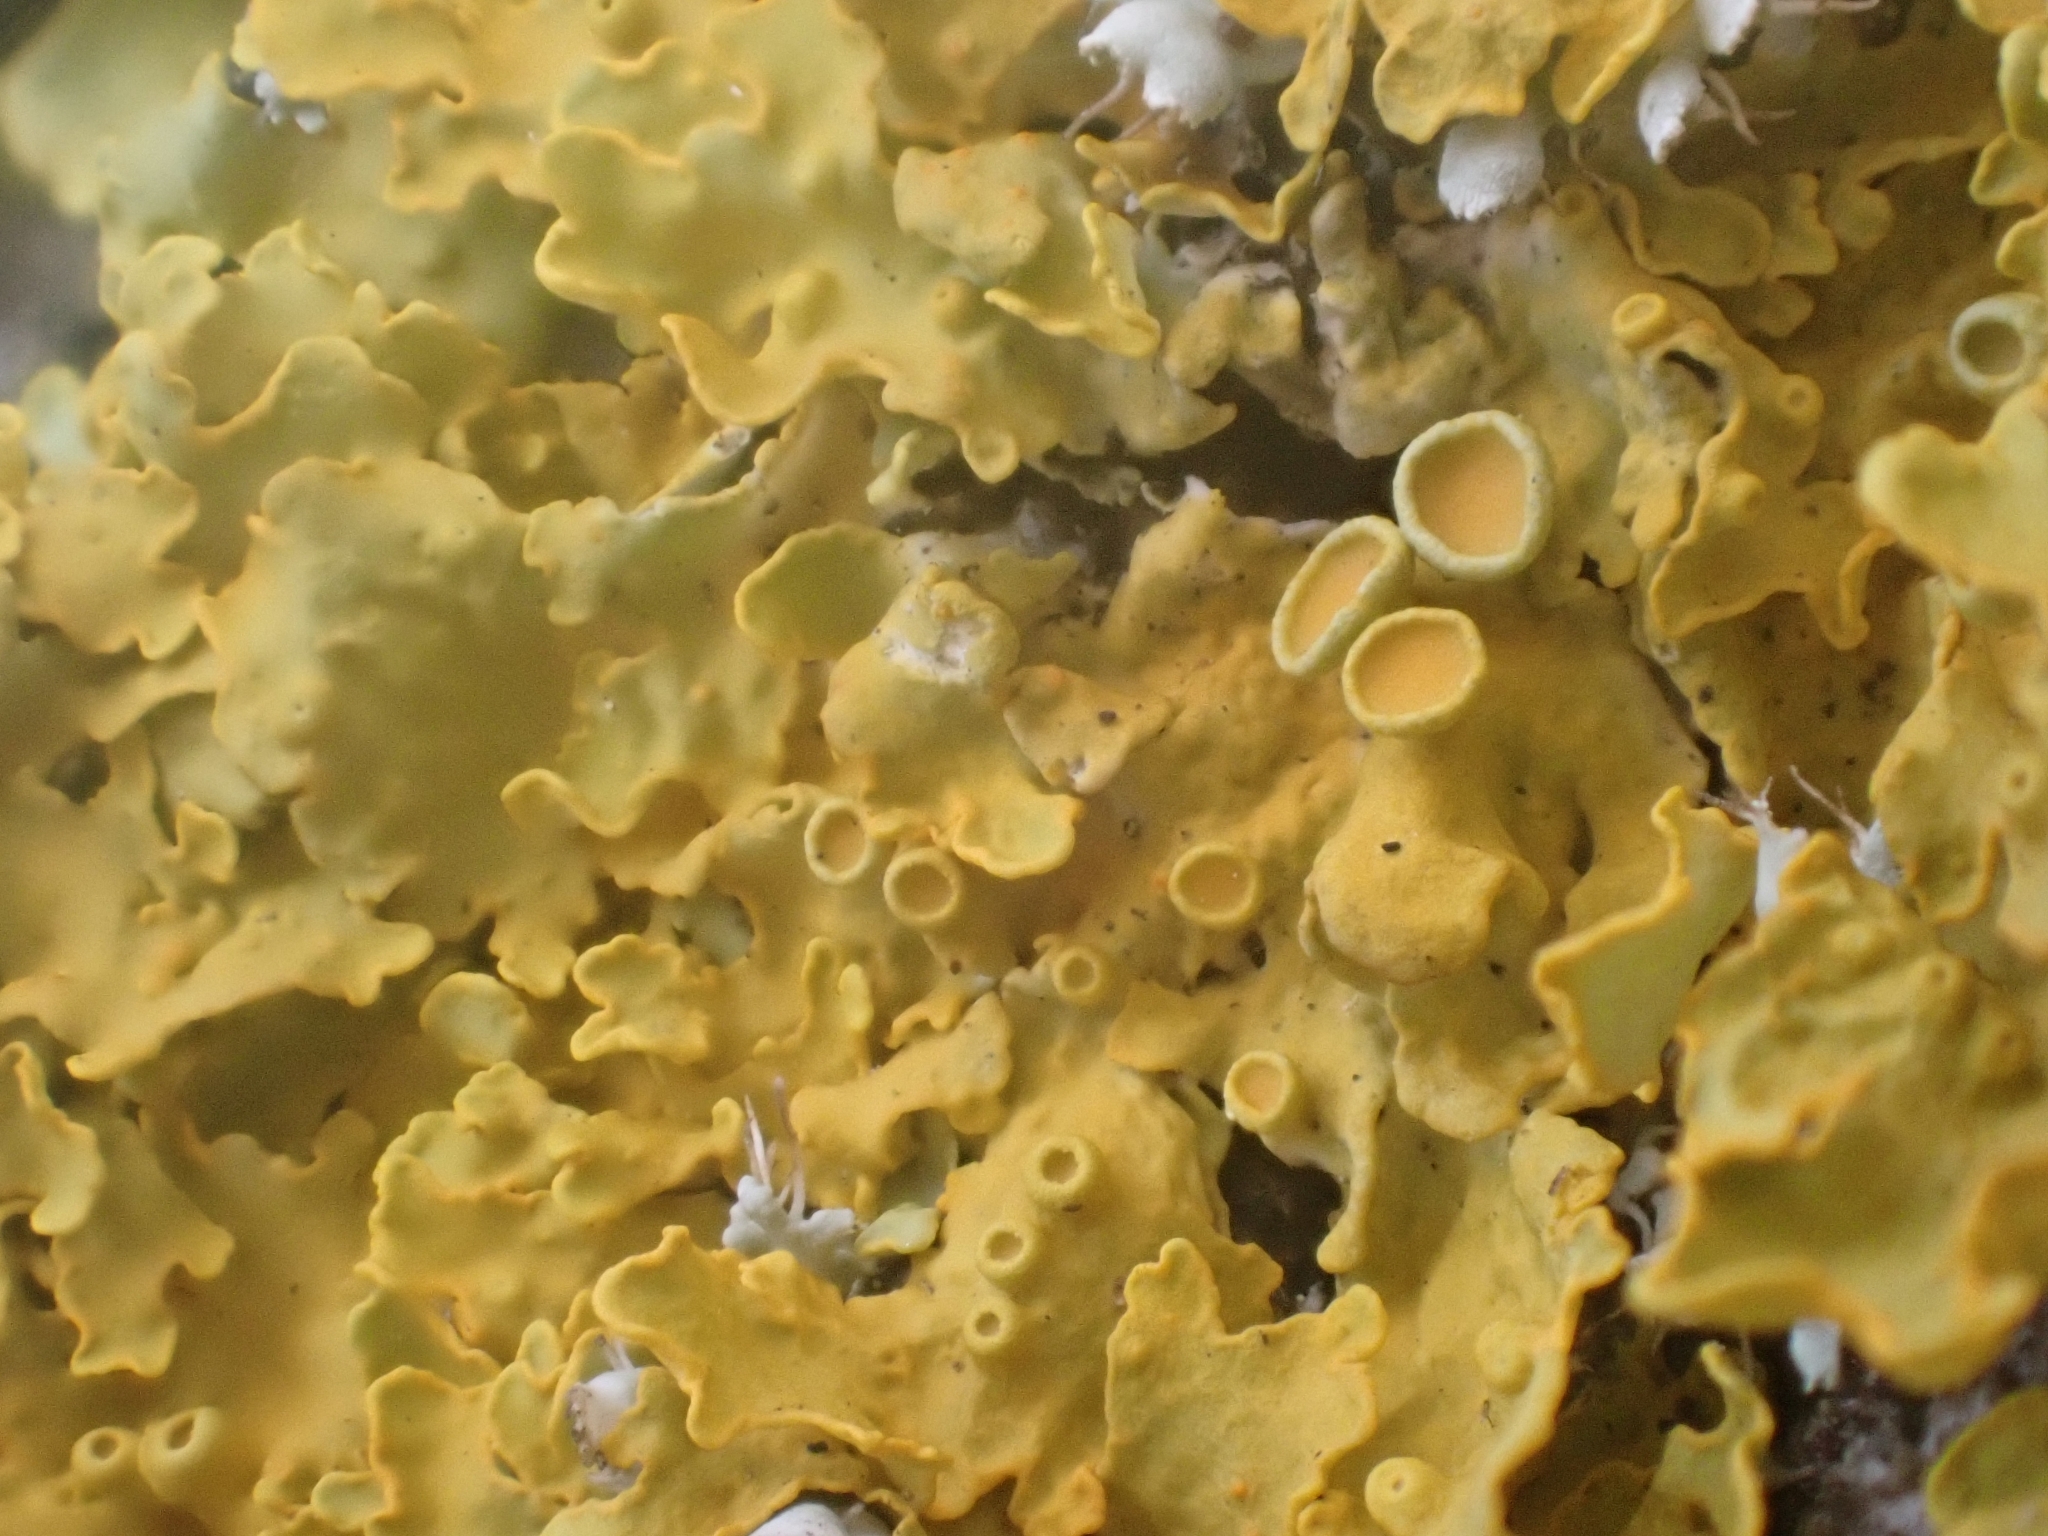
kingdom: Fungi
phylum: Ascomycota
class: Lecanoromycetes
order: Teloschistales
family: Teloschistaceae
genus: Xanthoria
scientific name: Xanthoria parietina
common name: Common orange lichen
